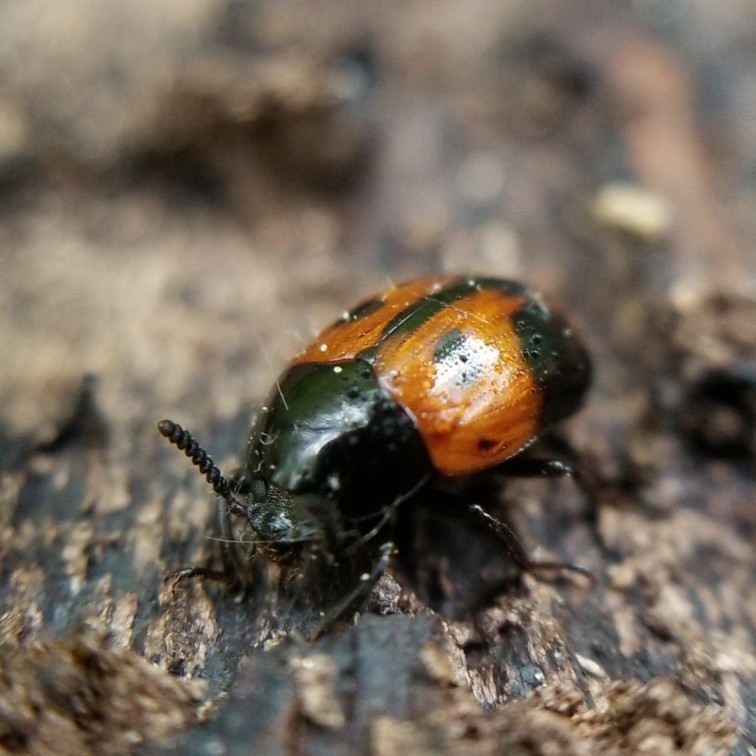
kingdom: Animalia
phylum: Arthropoda
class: Insecta
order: Coleoptera
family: Tenebrionidae
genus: Diaperis
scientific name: Diaperis maculata
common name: Darkling beetle
